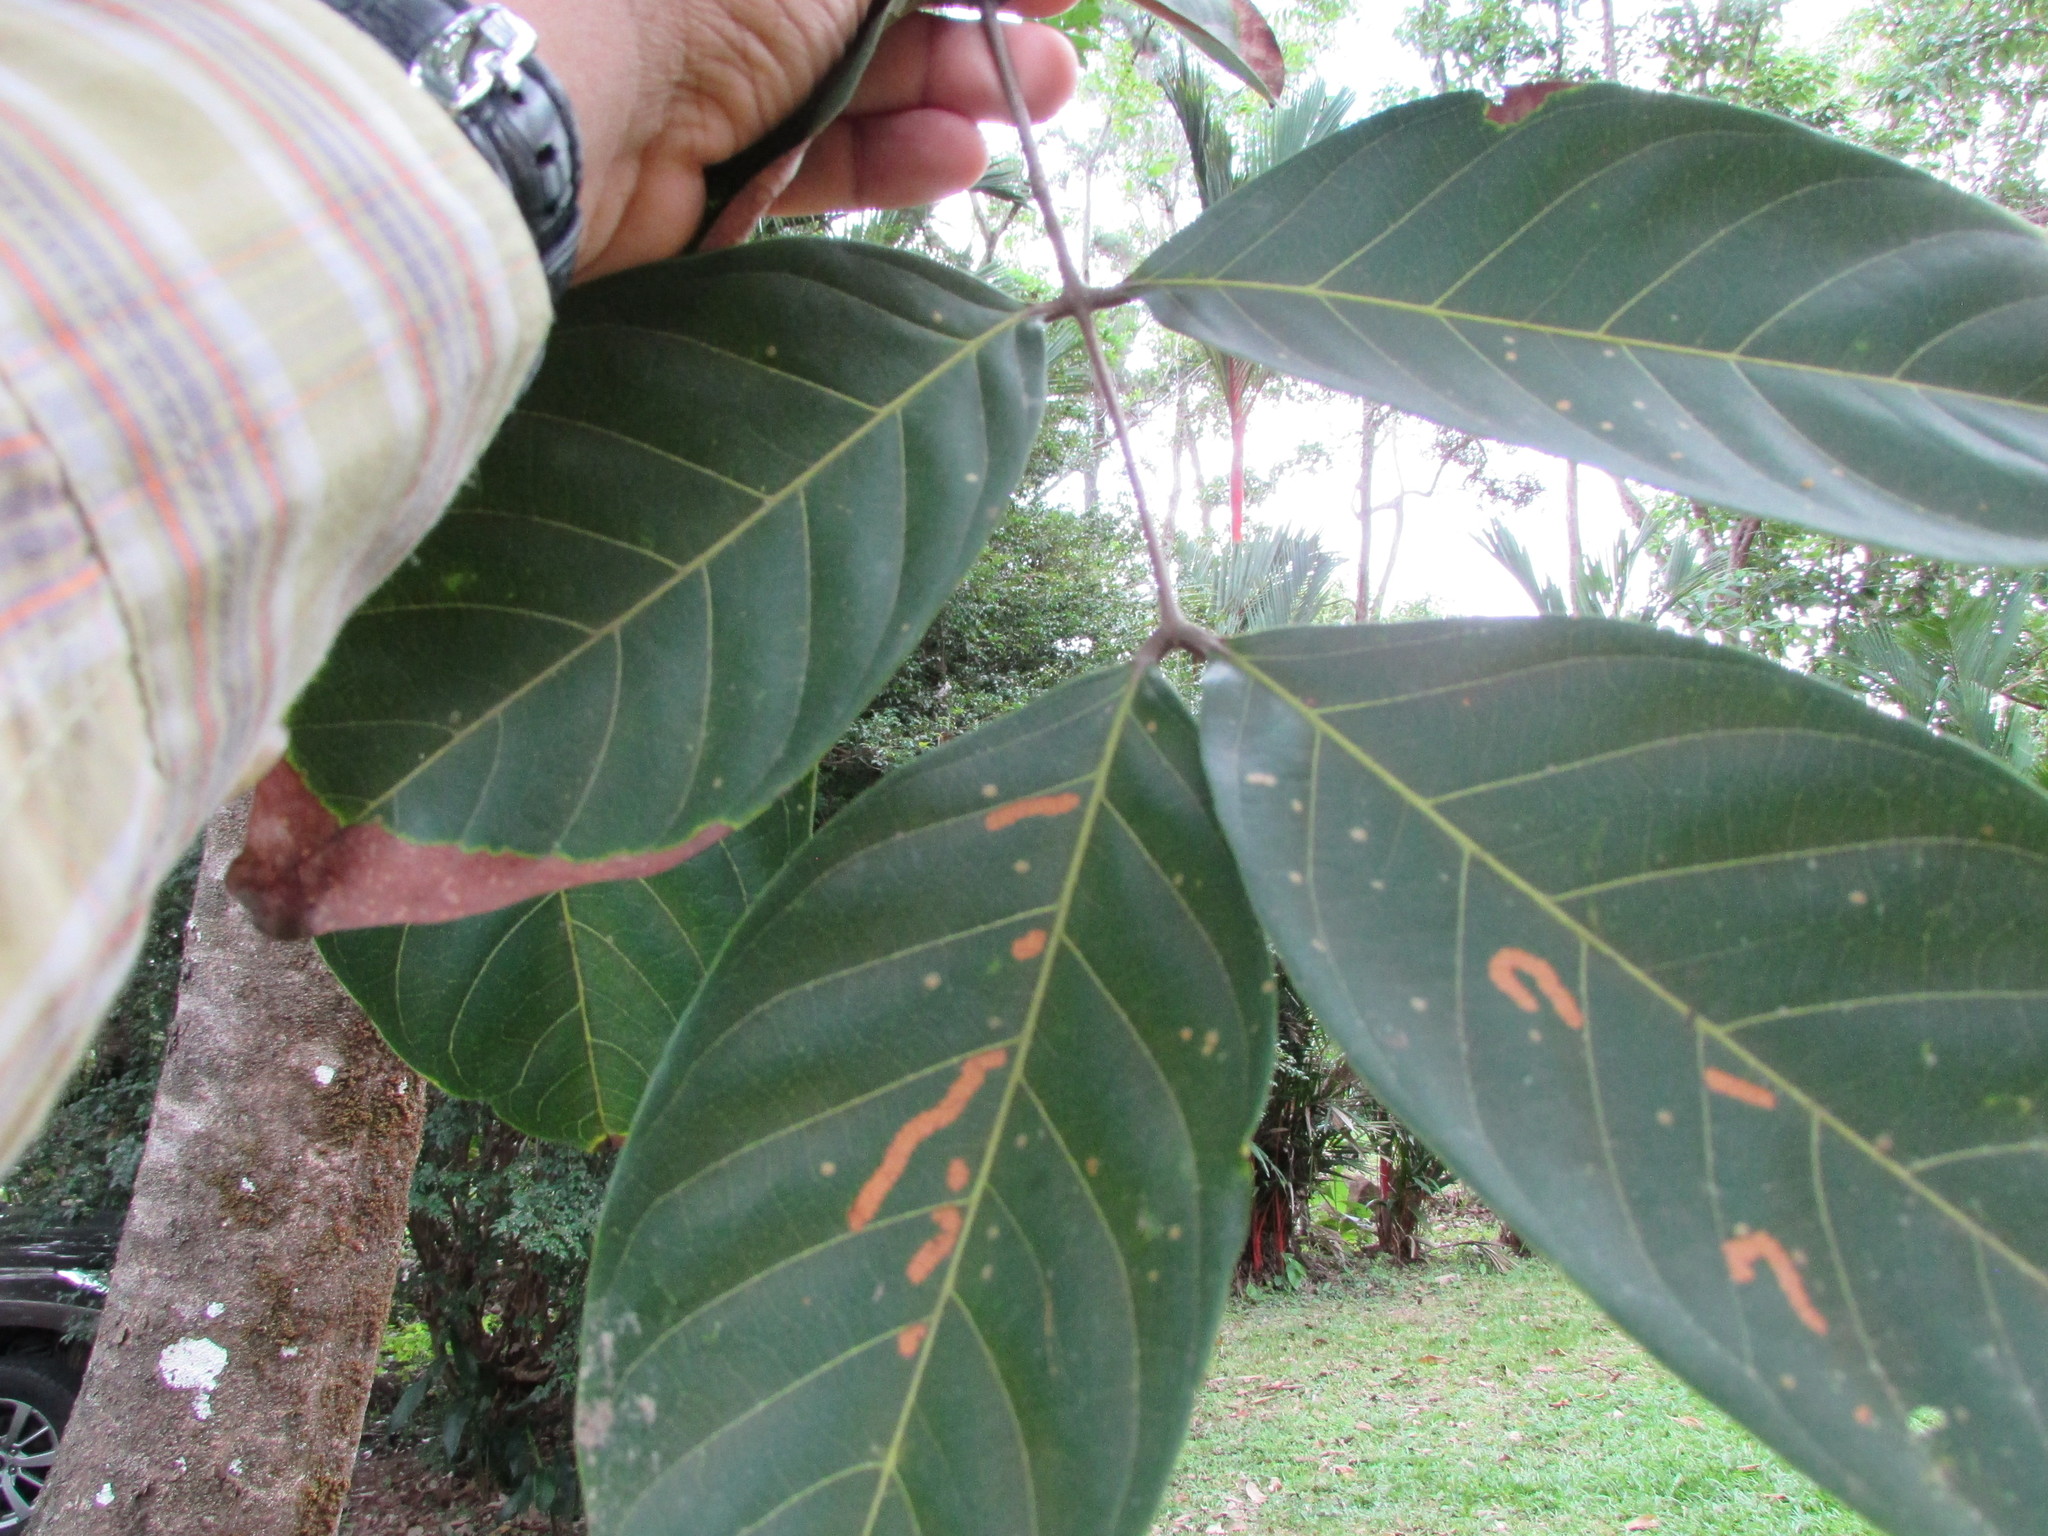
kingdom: Plantae
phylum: Tracheophyta
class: Magnoliopsida
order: Sapindales
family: Sapindaceae
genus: Nephelium
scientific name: Nephelium lappaceum
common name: Rambutan
